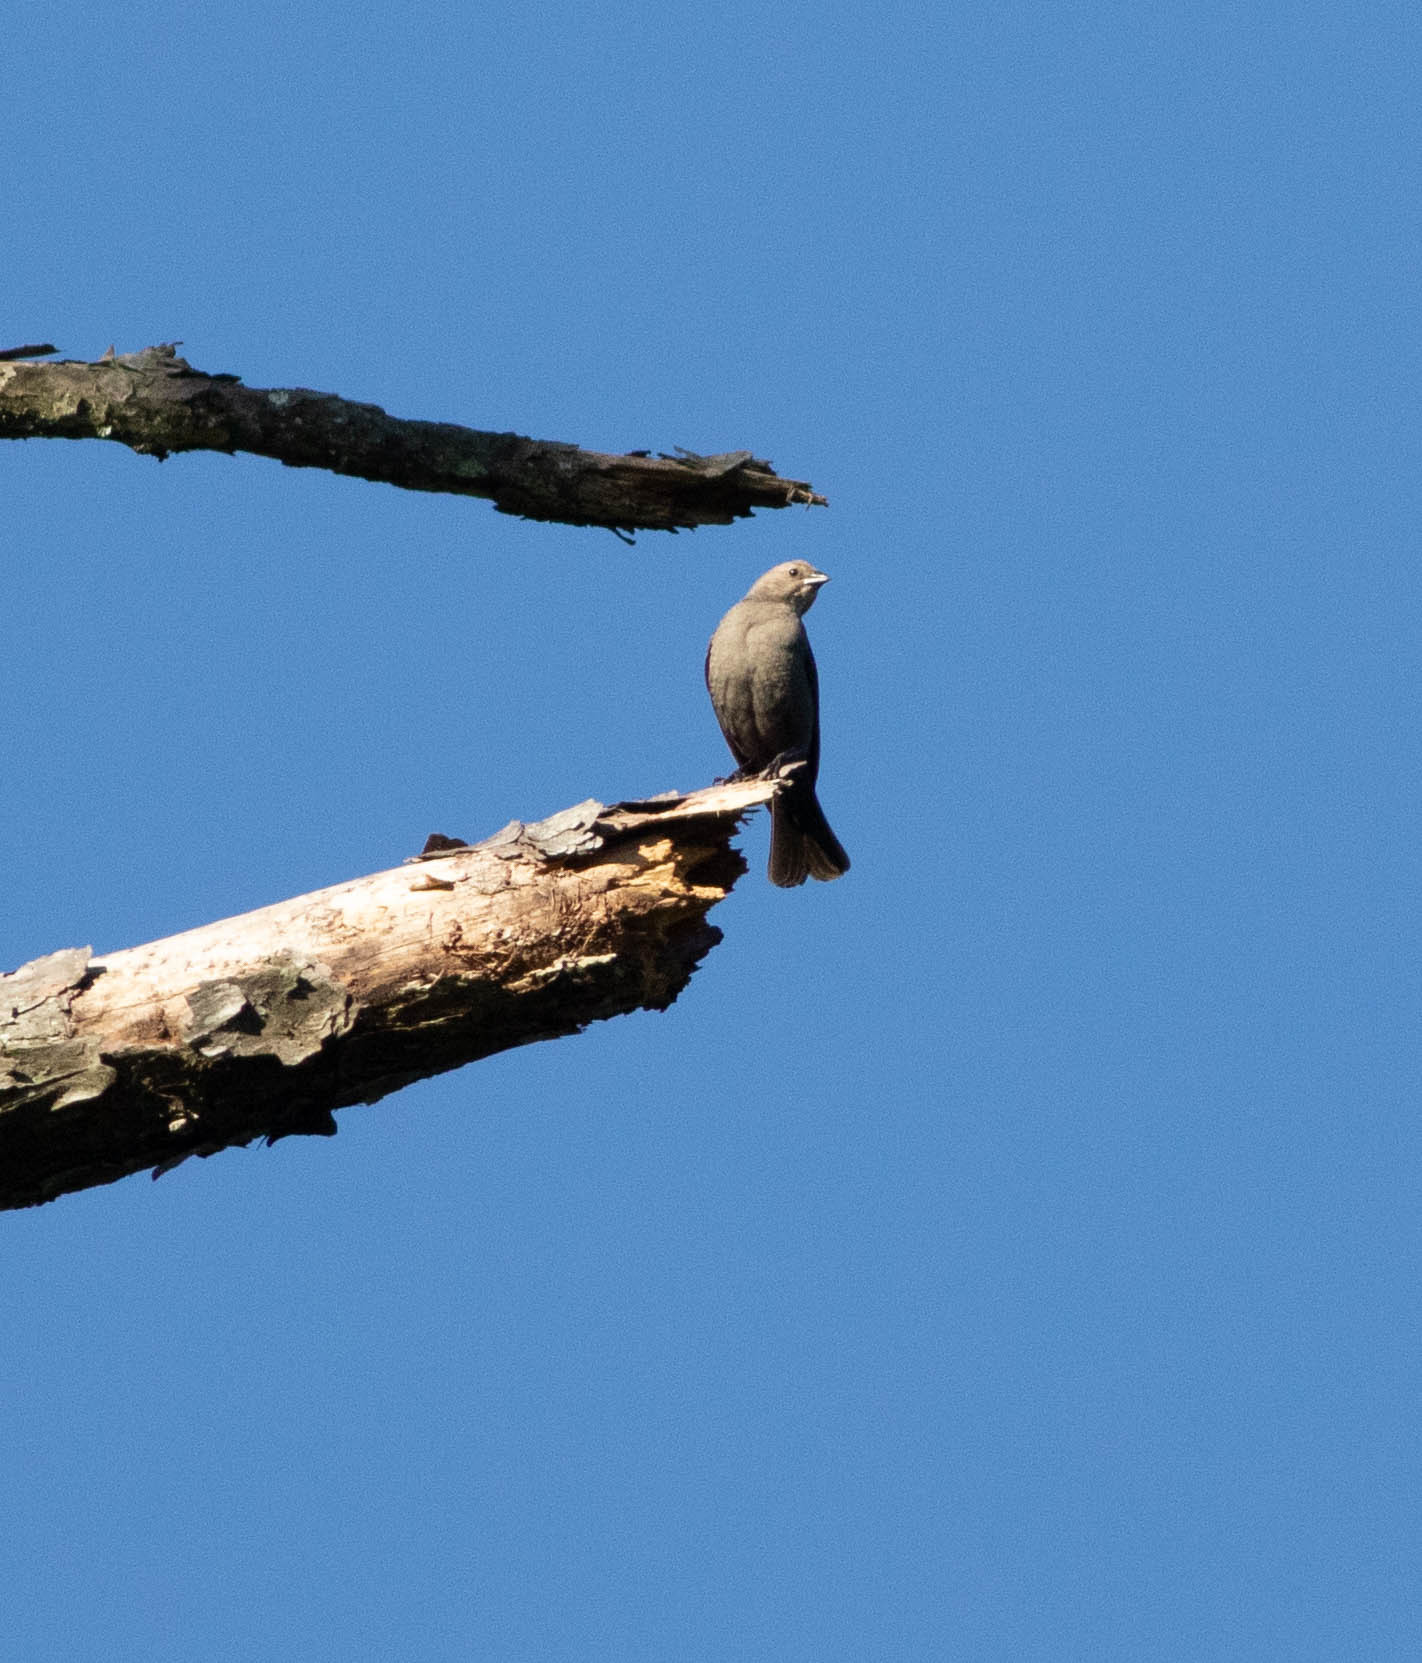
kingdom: Animalia
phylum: Chordata
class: Aves
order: Passeriformes
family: Icteridae
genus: Molothrus
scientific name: Molothrus ater
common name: Brown-headed cowbird
